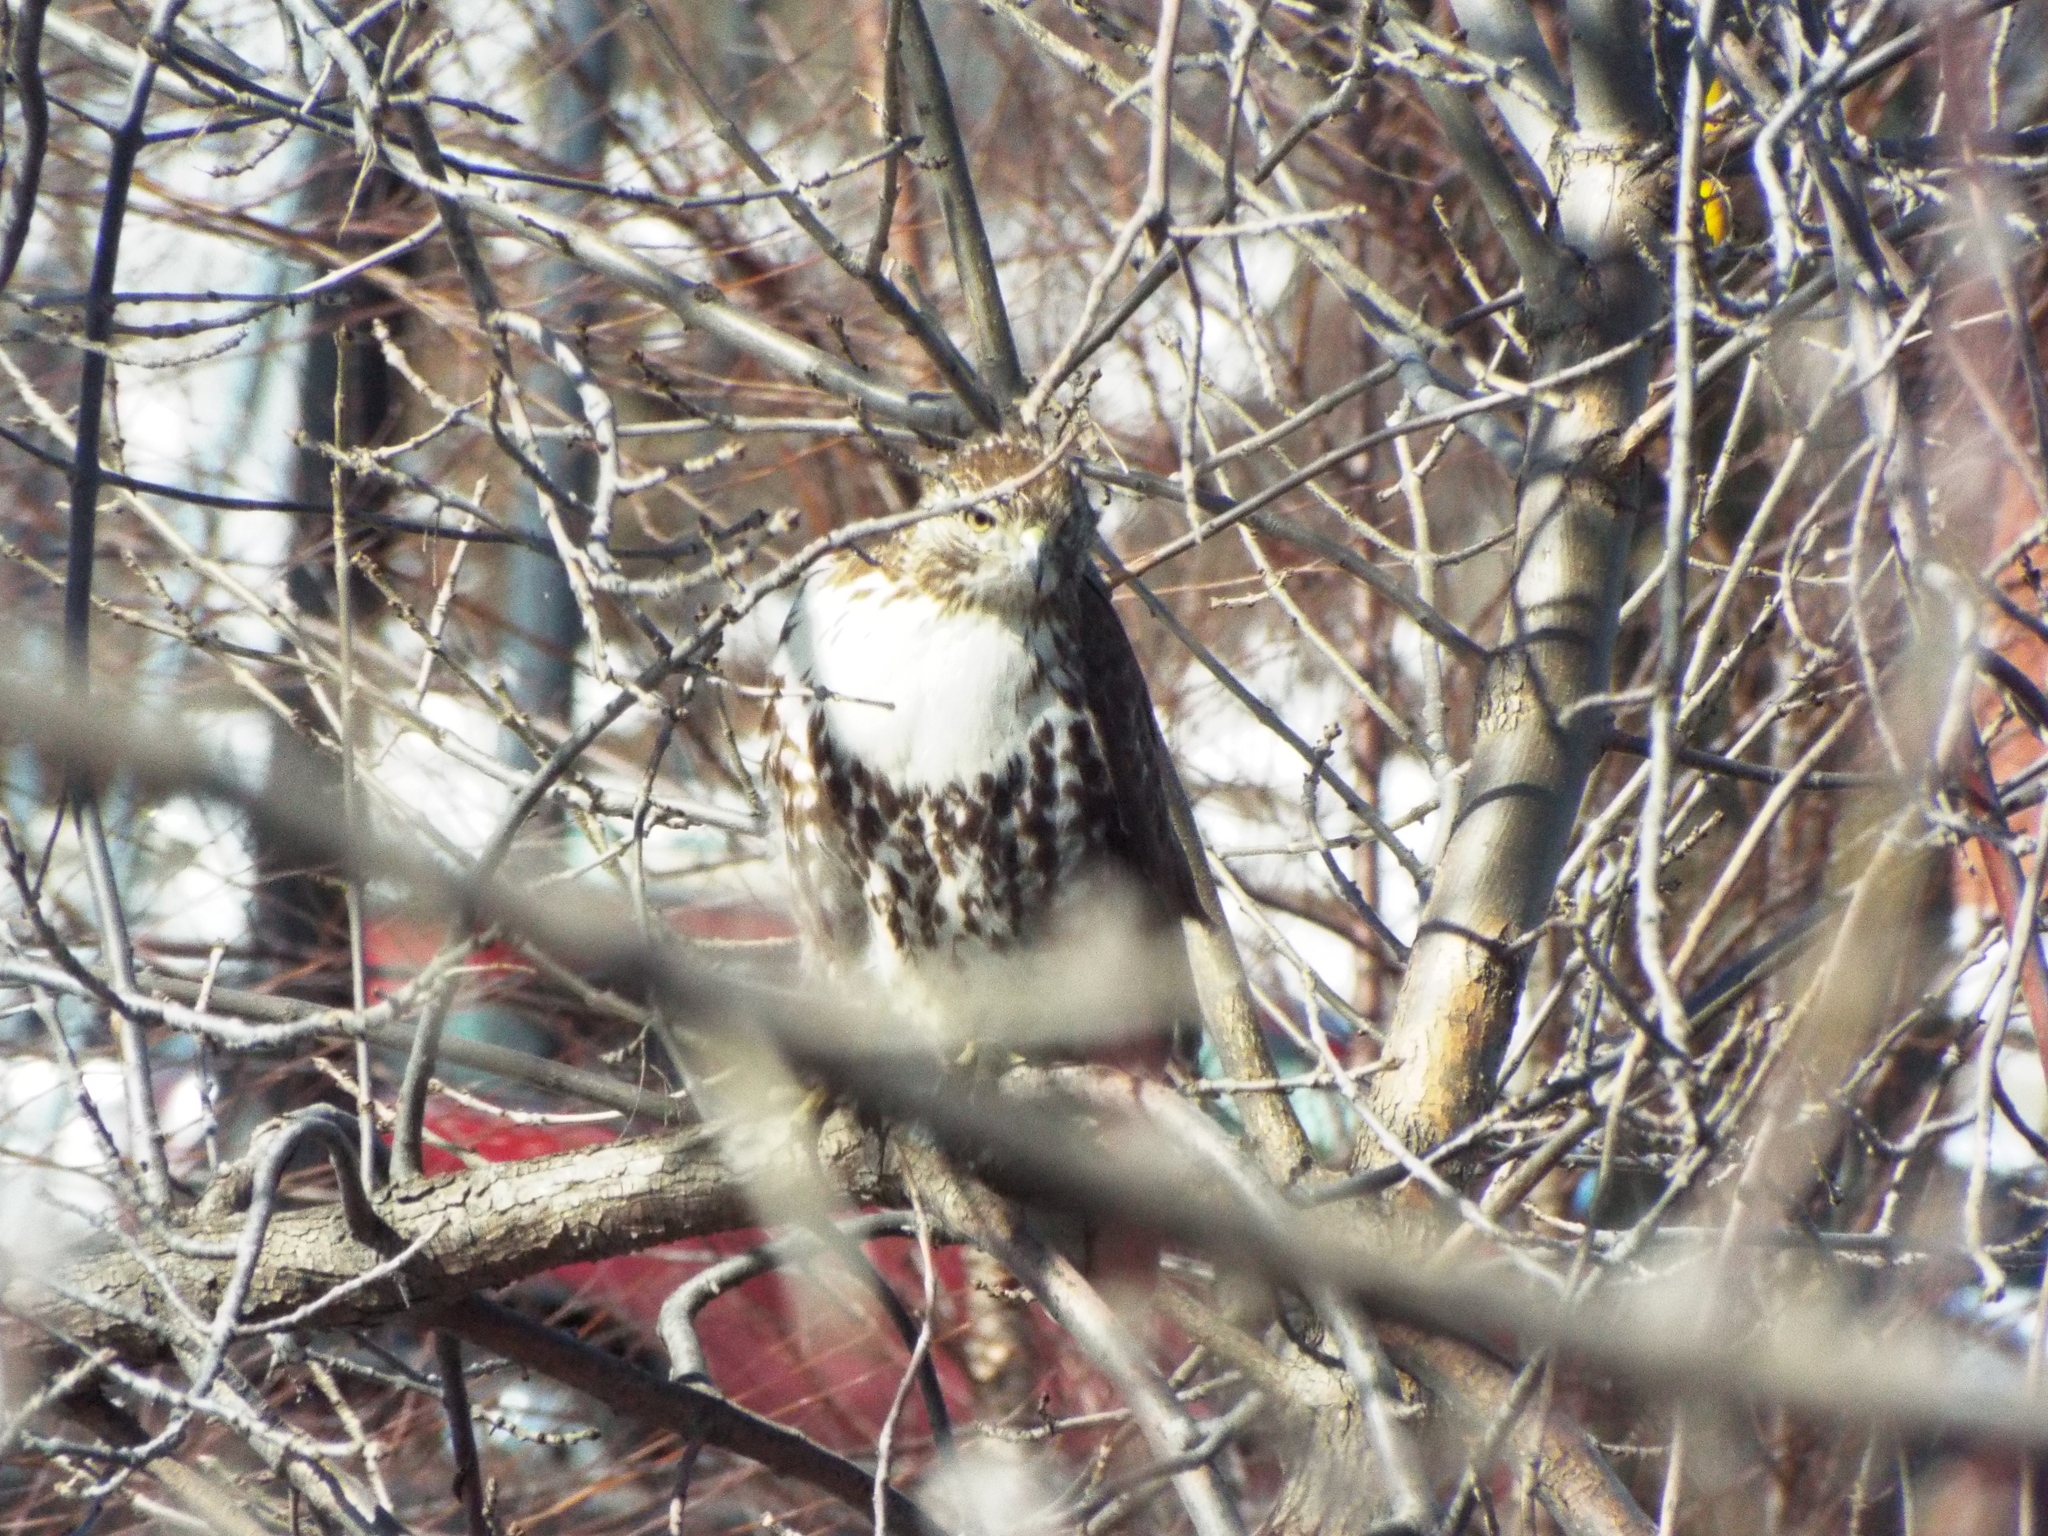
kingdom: Animalia
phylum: Chordata
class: Aves
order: Accipitriformes
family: Accipitridae
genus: Buteo
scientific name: Buteo jamaicensis
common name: Red-tailed hawk
